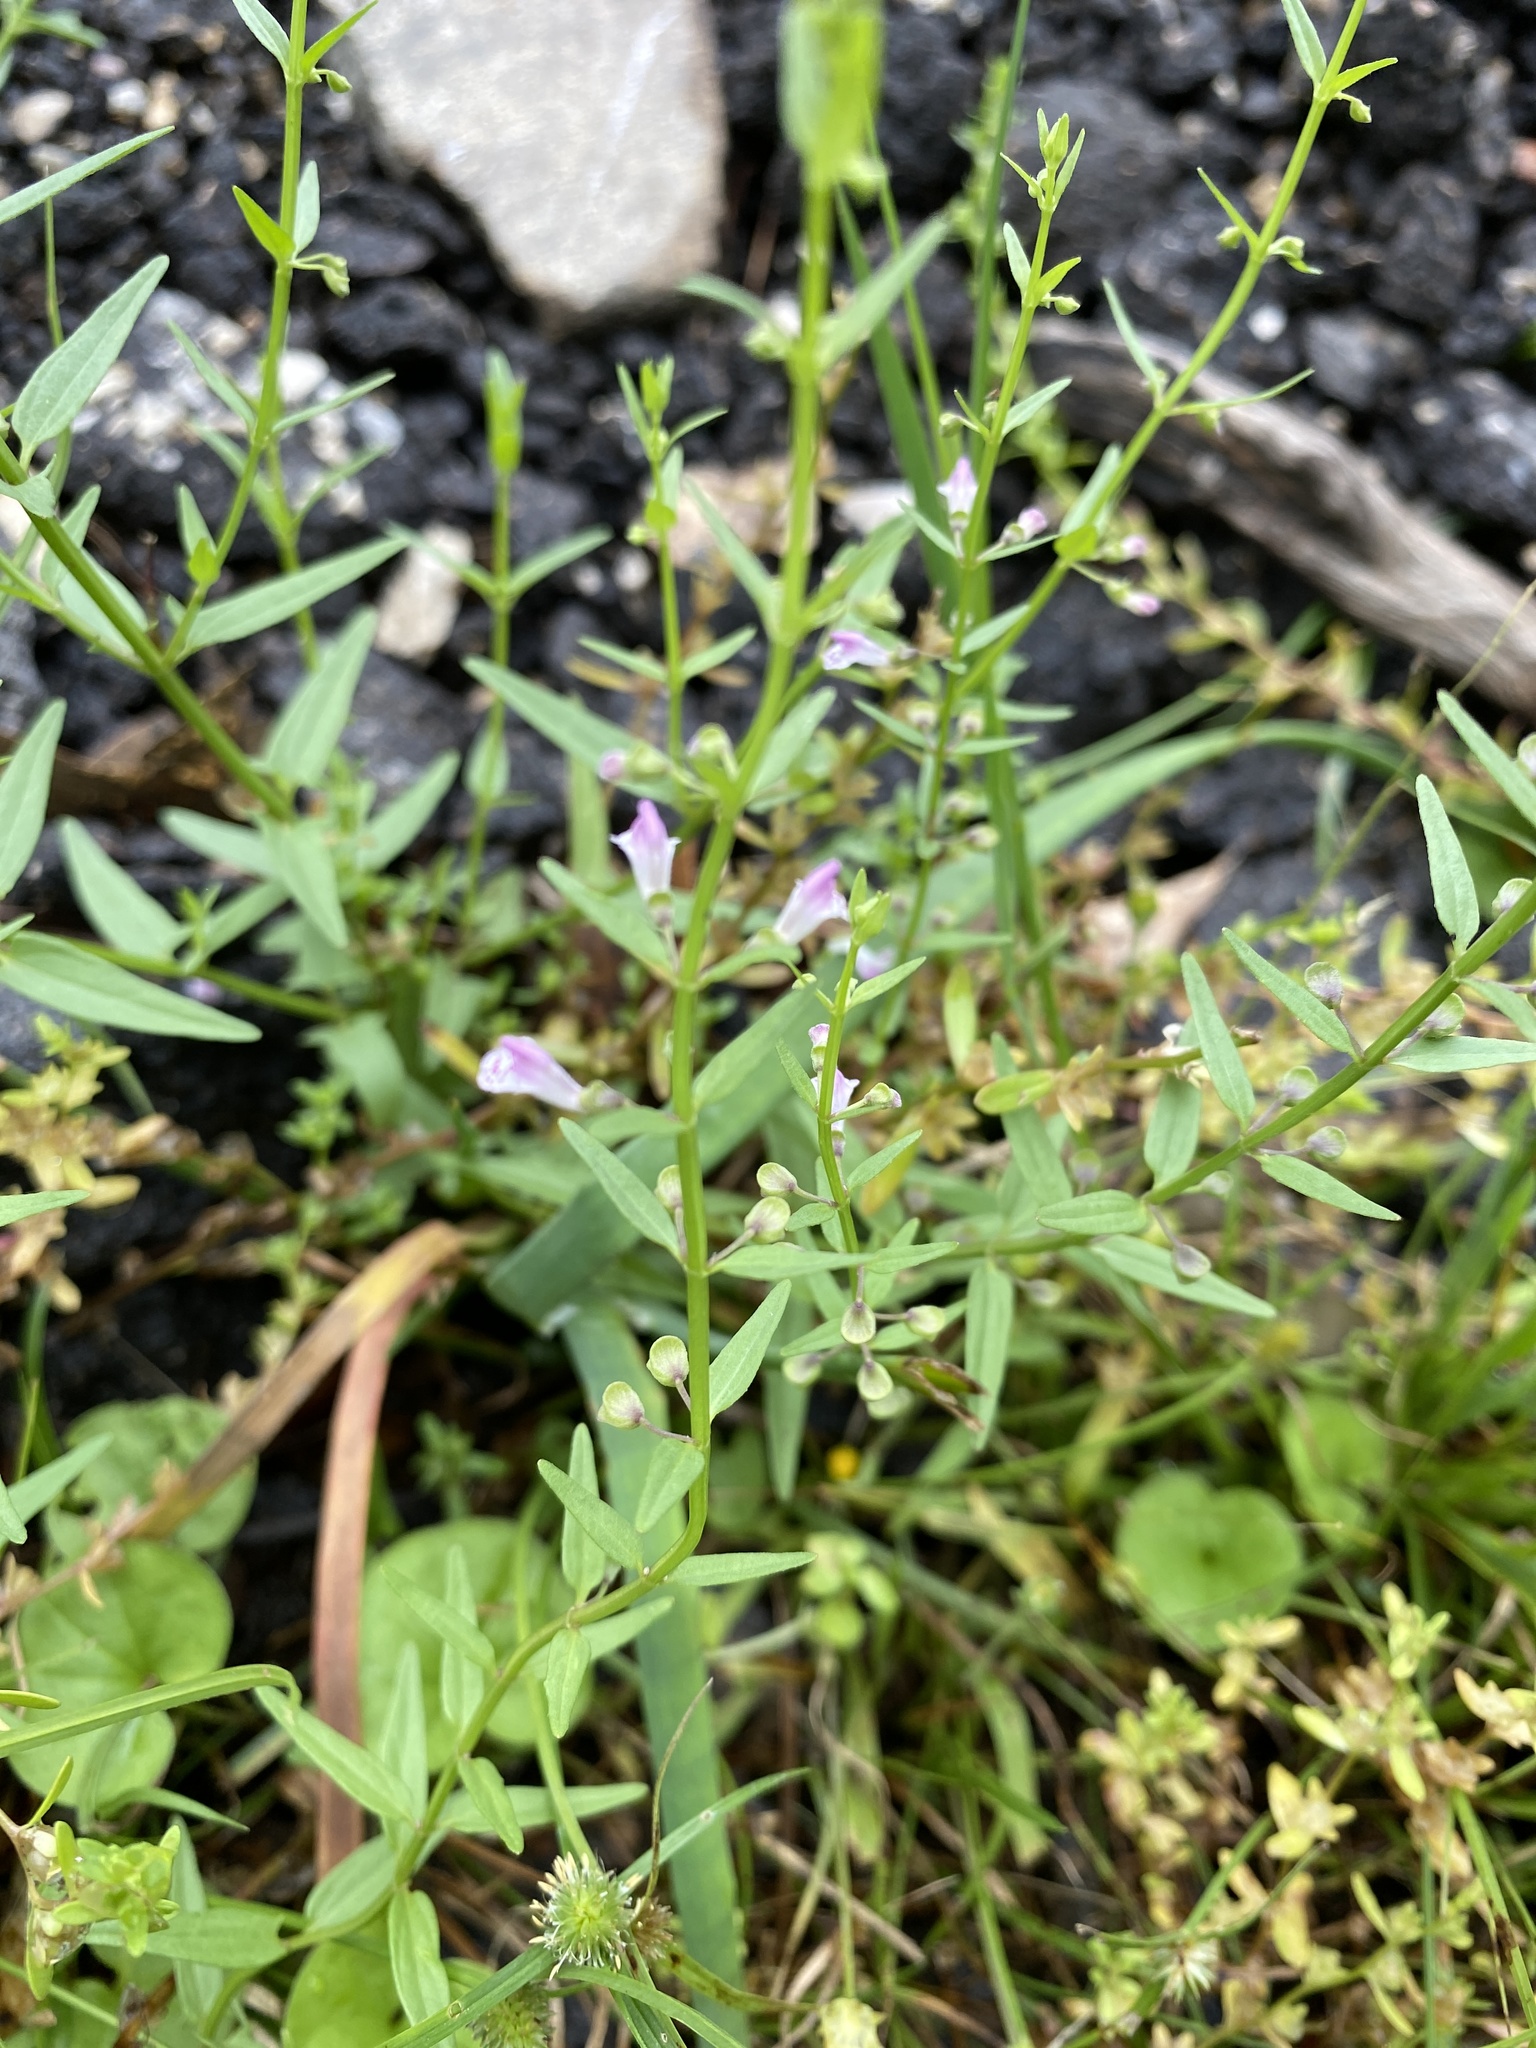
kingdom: Plantae
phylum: Tracheophyta
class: Magnoliopsida
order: Lamiales
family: Lamiaceae
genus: Scutellaria
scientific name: Scutellaria racemosa
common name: South american skullcap
